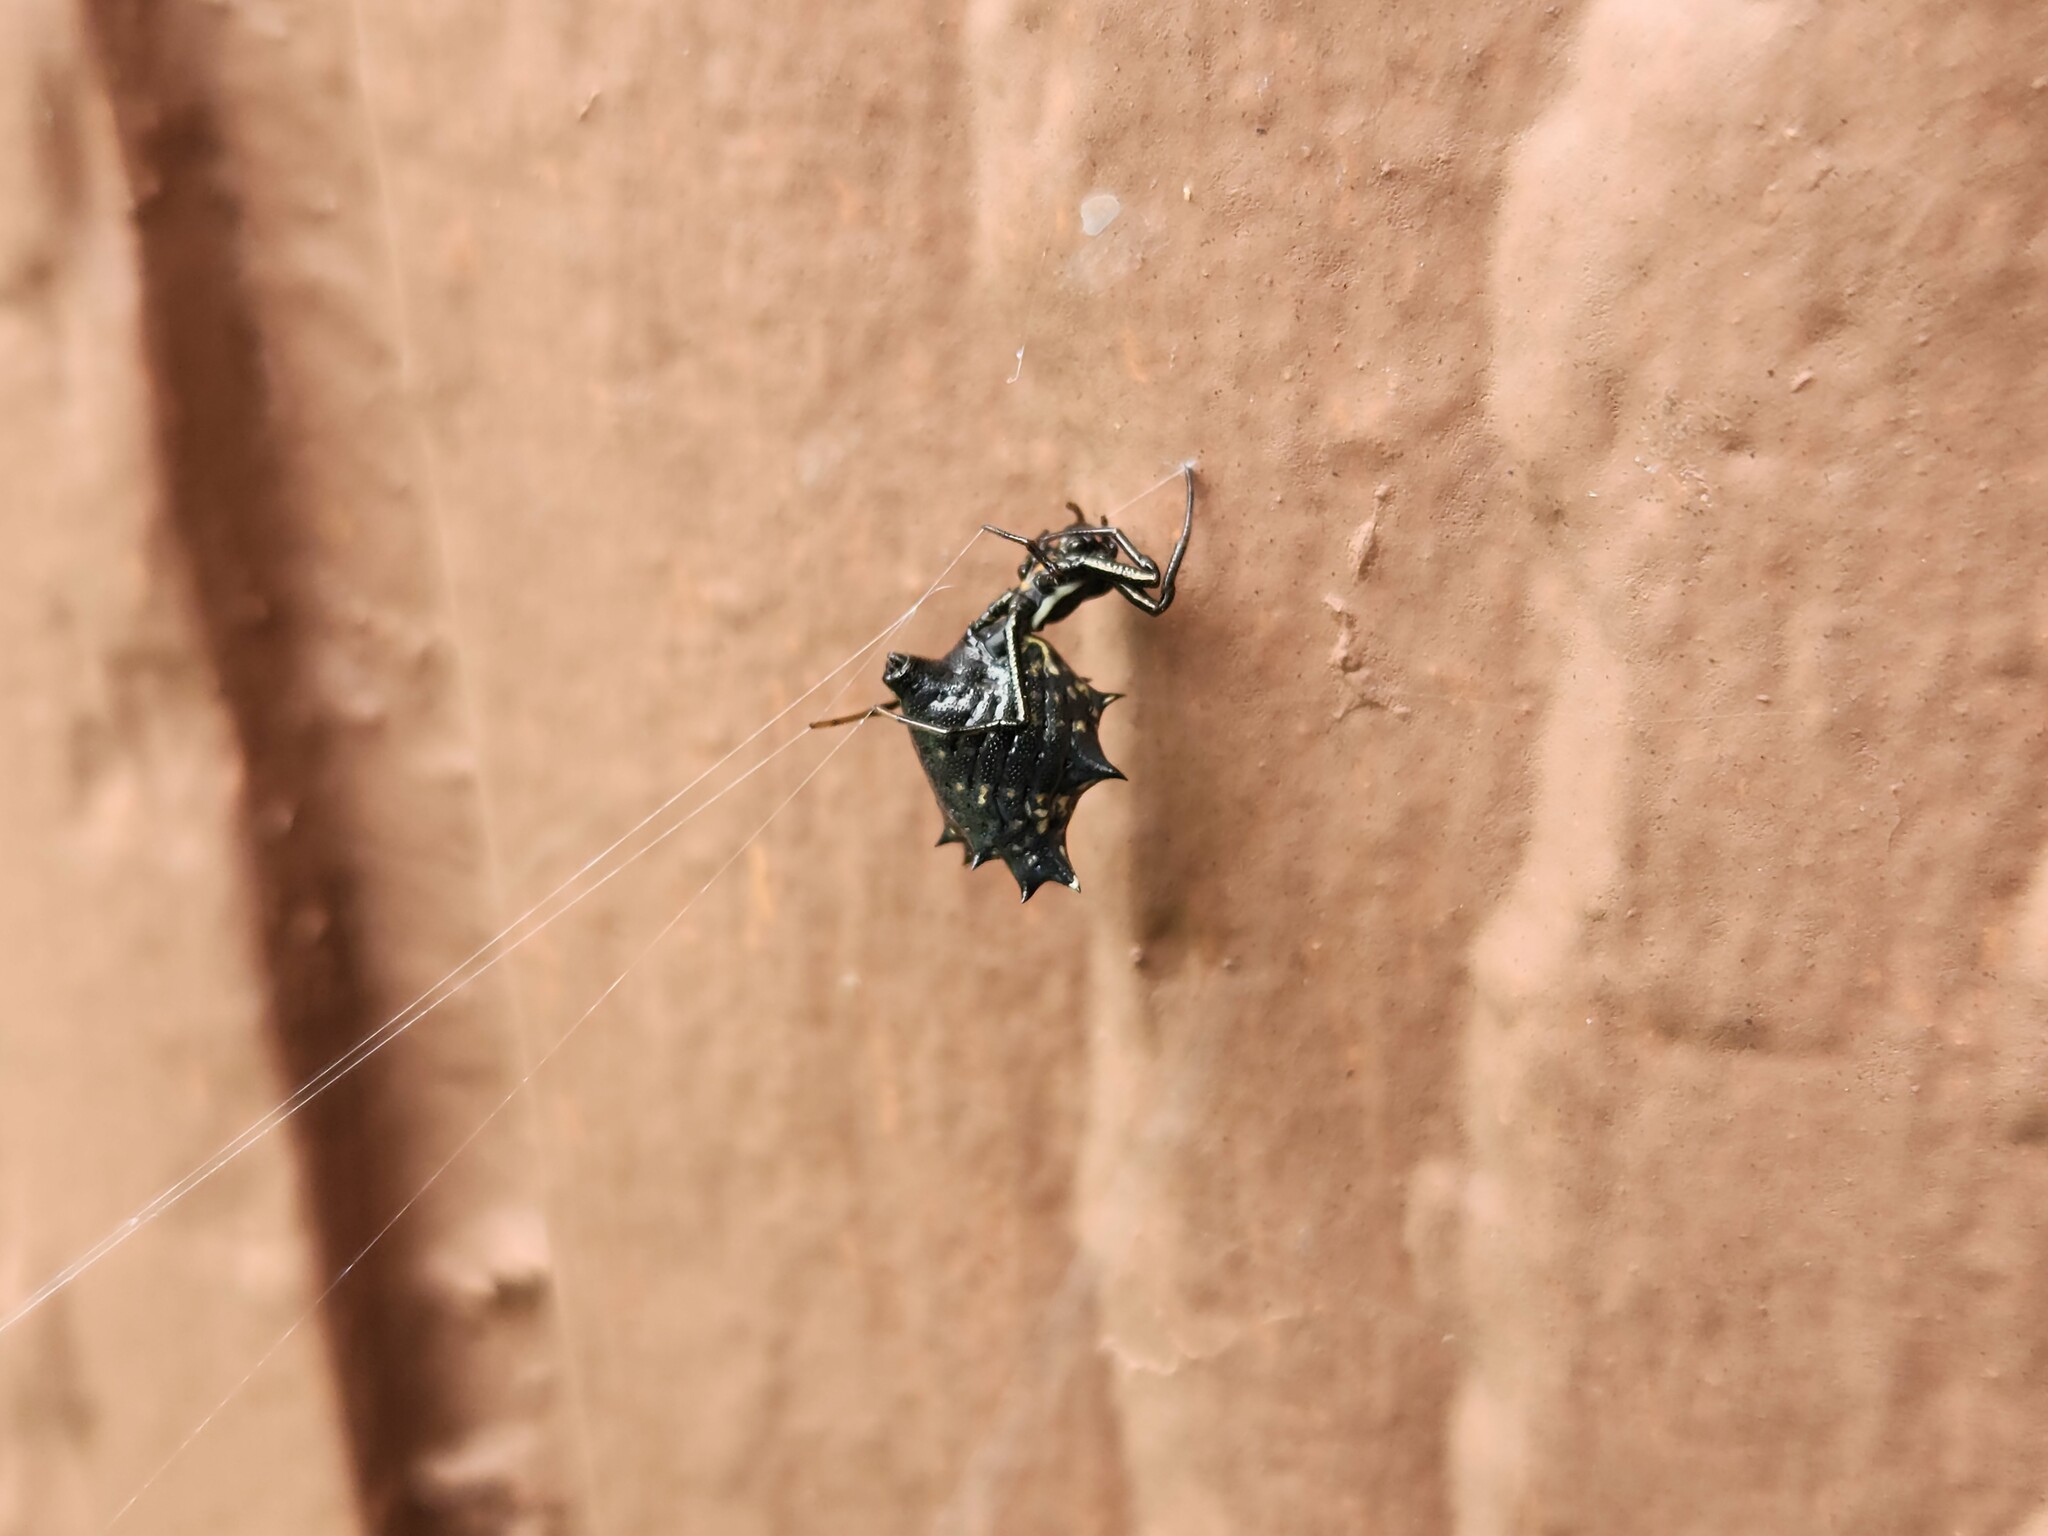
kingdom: Animalia
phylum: Arthropoda
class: Arachnida
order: Araneae
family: Araneidae
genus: Micrathena
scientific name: Micrathena gracilis
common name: Orb weavers
